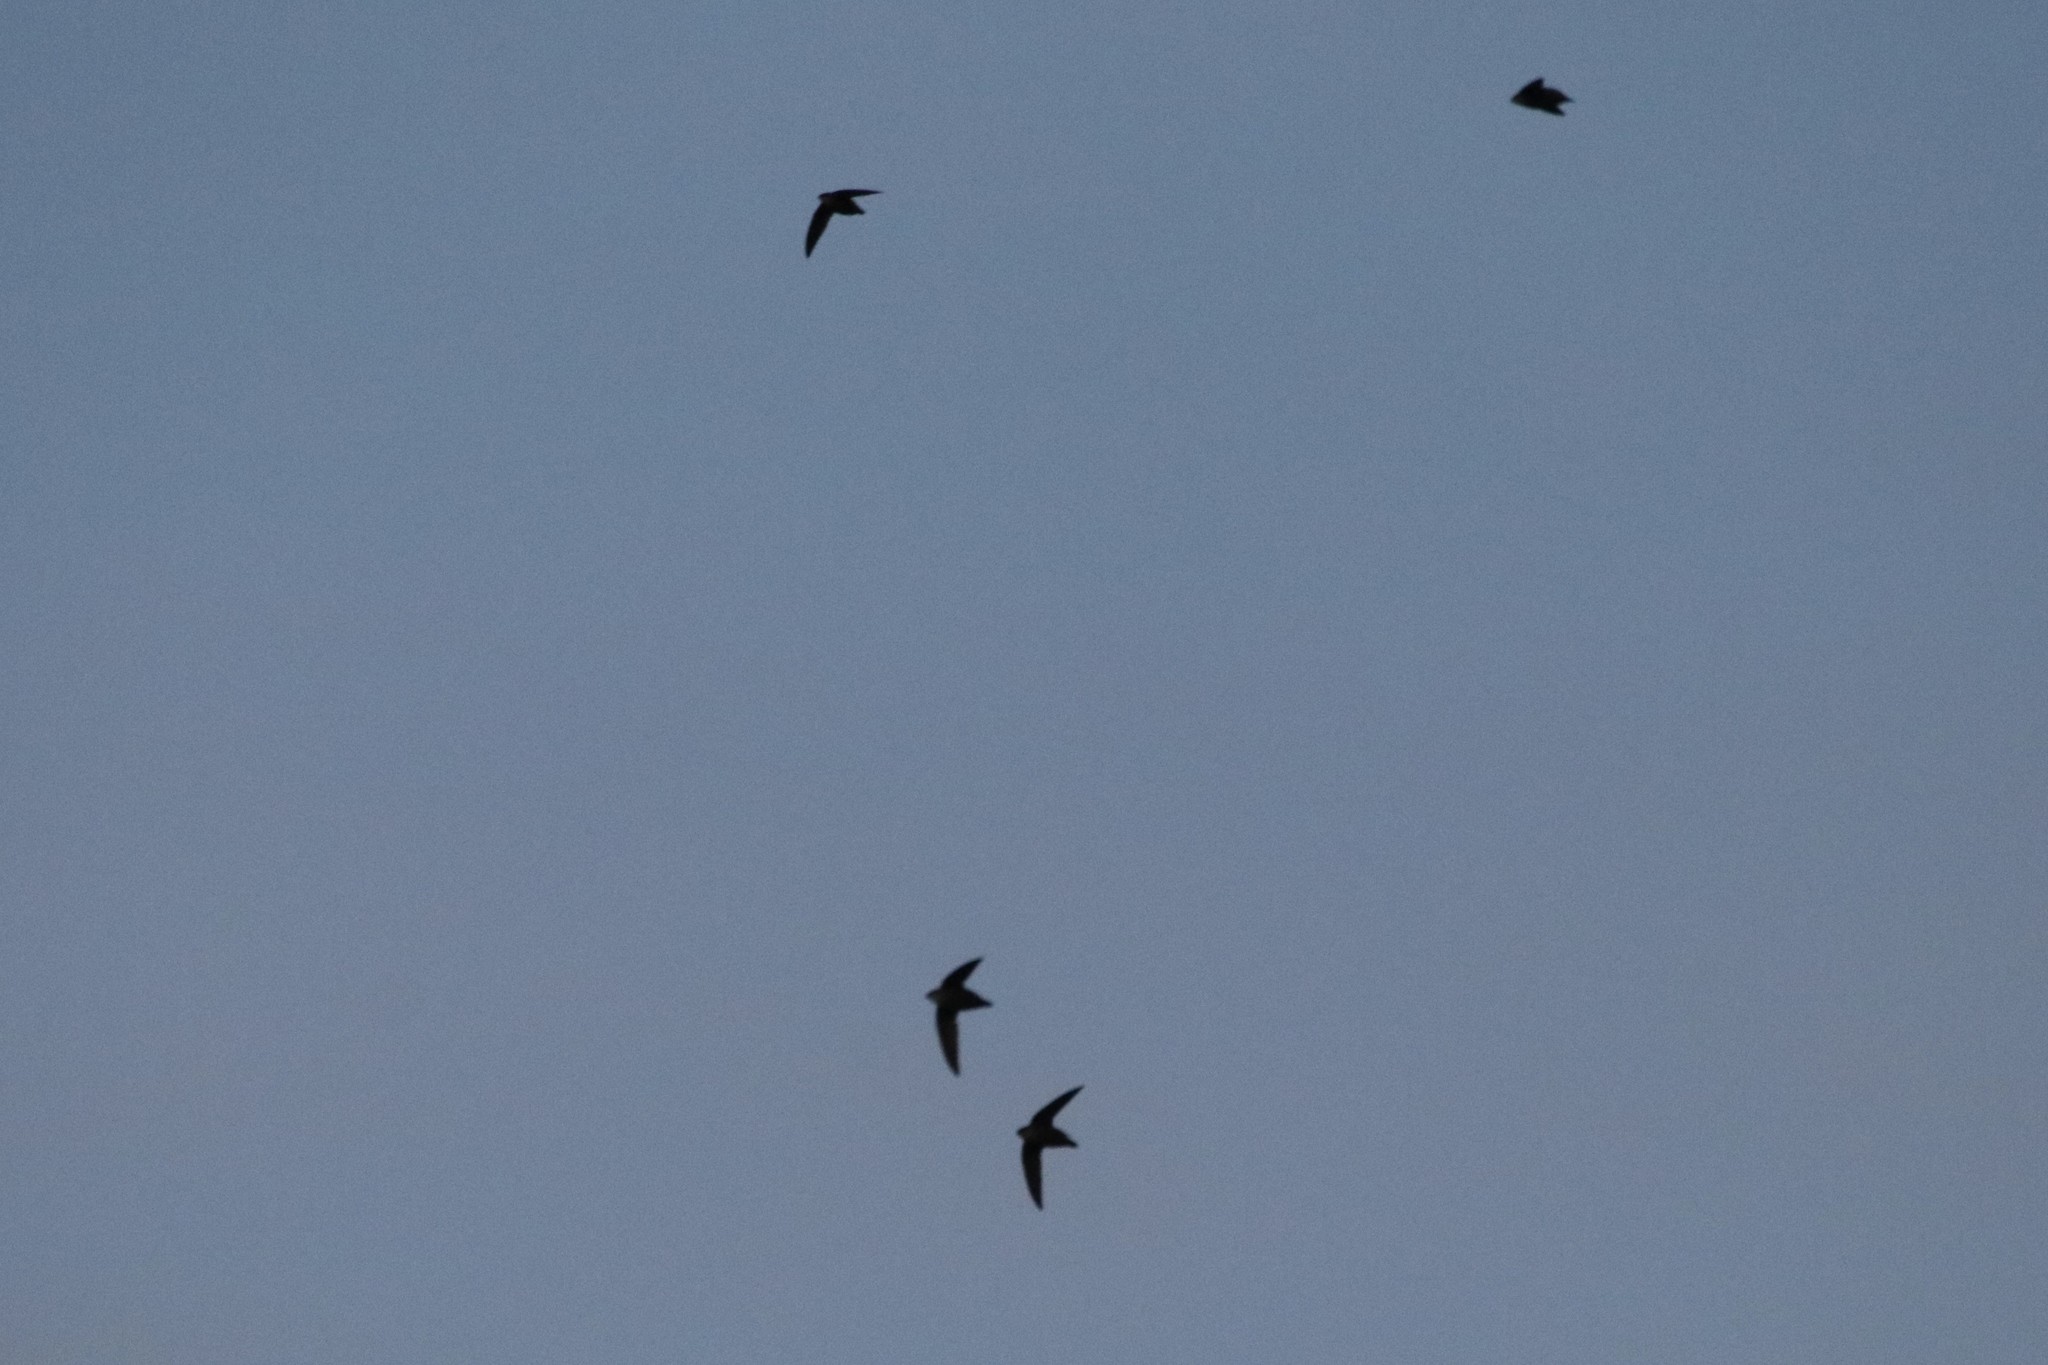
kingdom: Animalia
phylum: Chordata
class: Aves
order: Apodiformes
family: Apodidae
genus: Chaetura
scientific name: Chaetura pelagica
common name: Chimney swift
